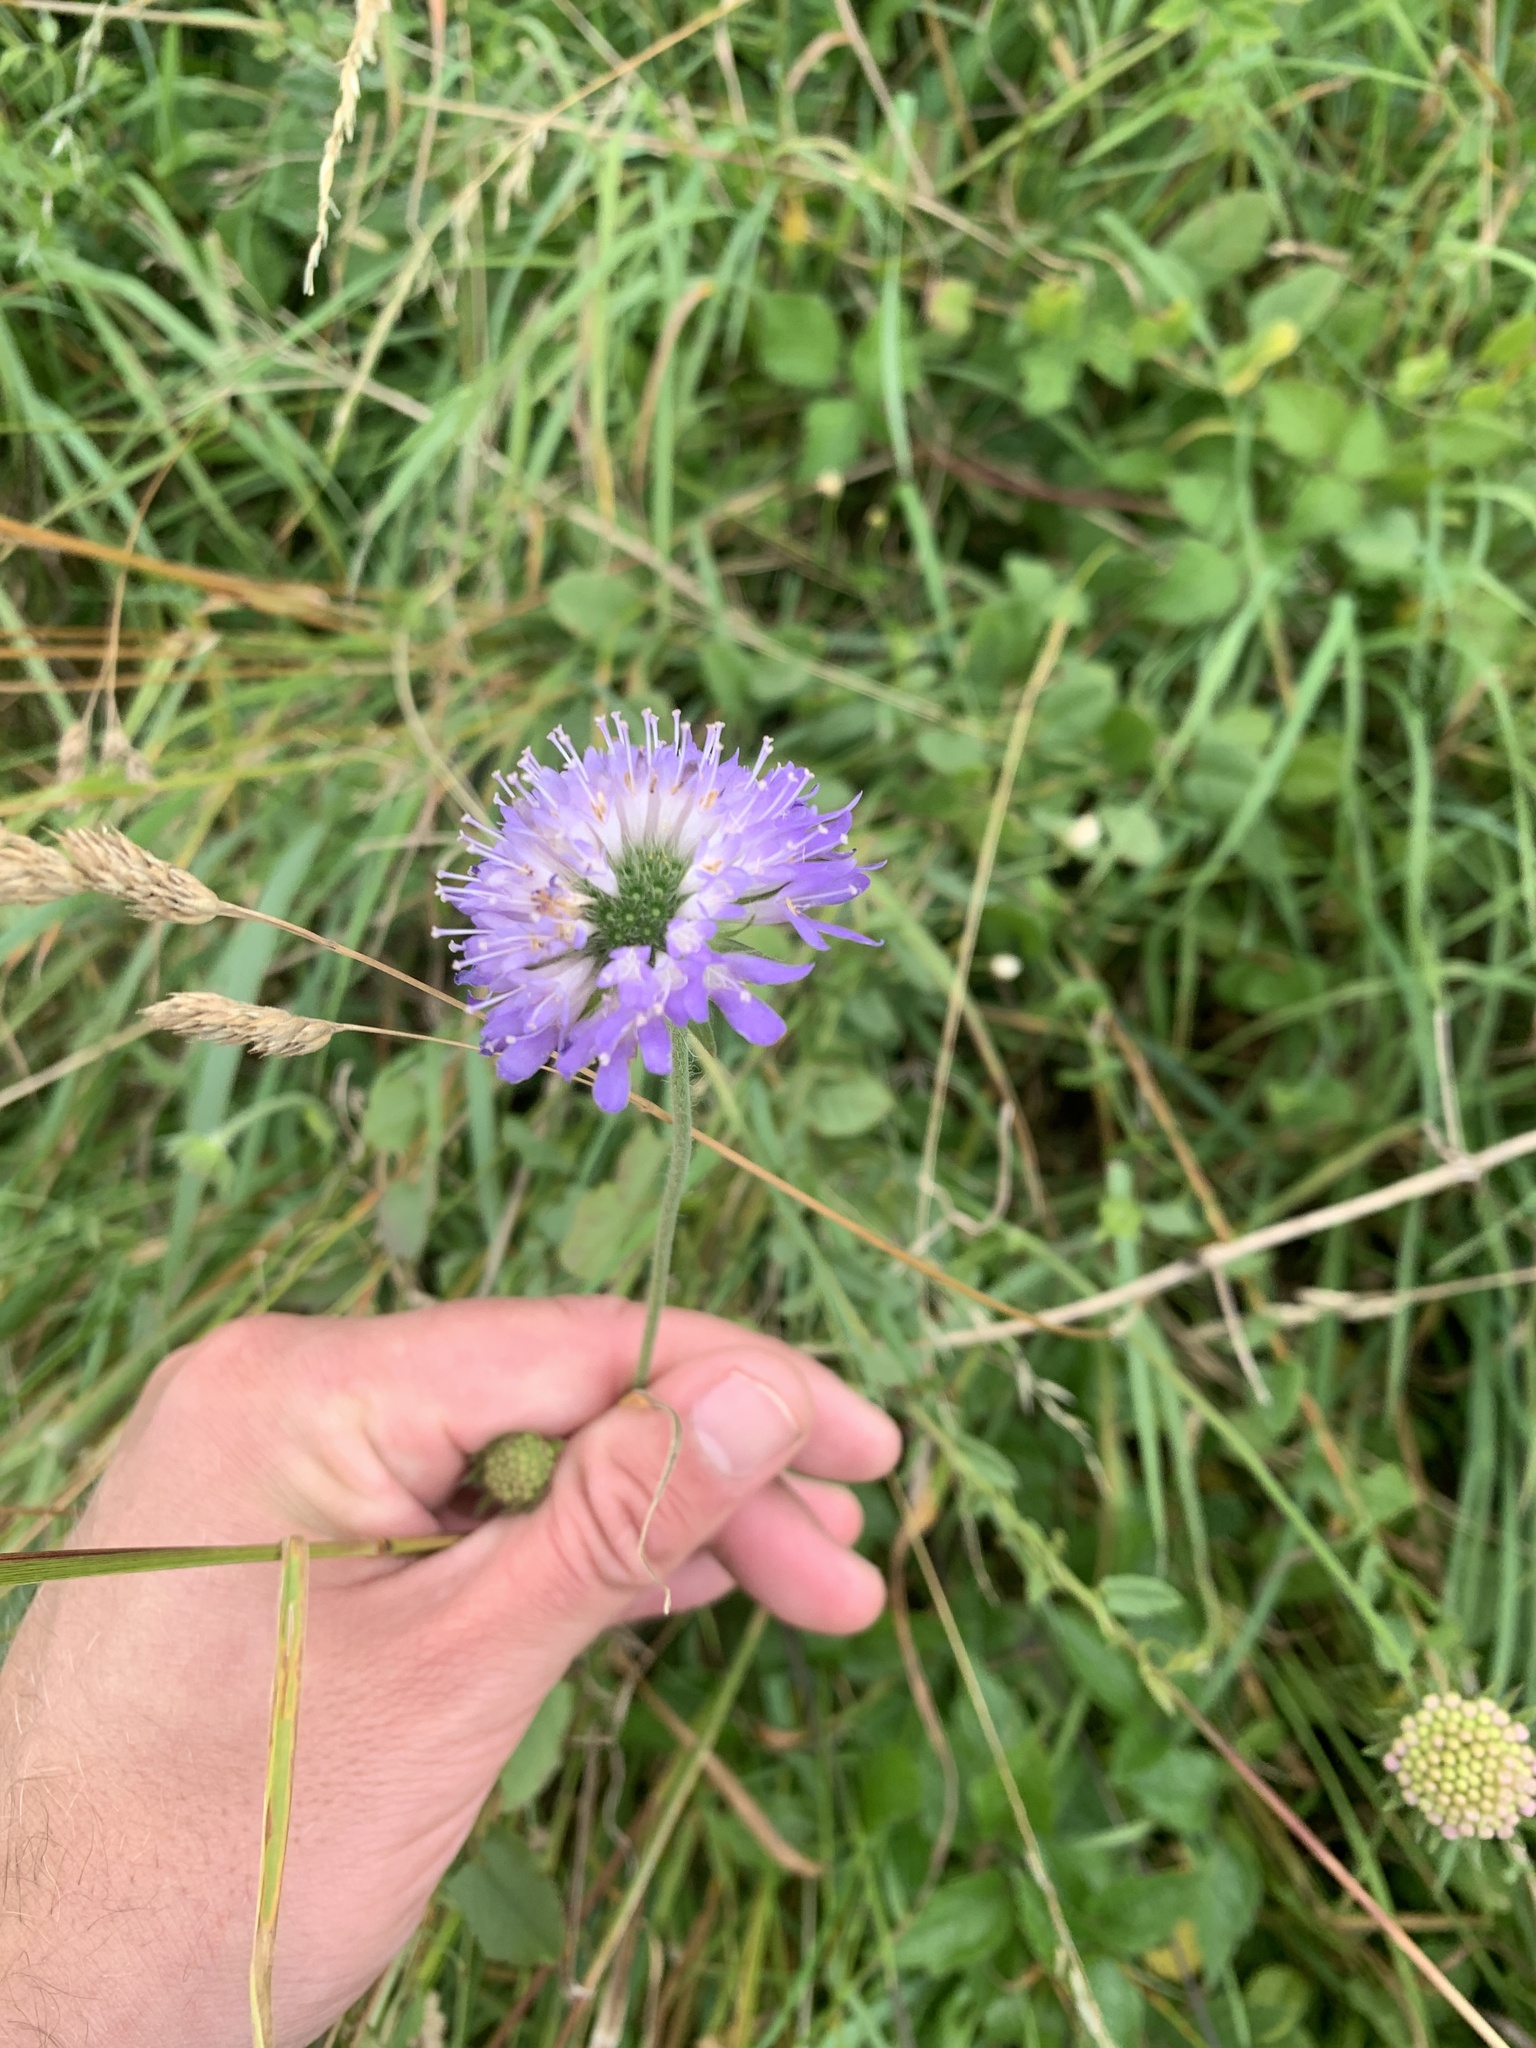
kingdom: Plantae
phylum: Tracheophyta
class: Magnoliopsida
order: Dipsacales
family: Caprifoliaceae
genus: Knautia
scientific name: Knautia arvensis
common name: Field scabiosa
